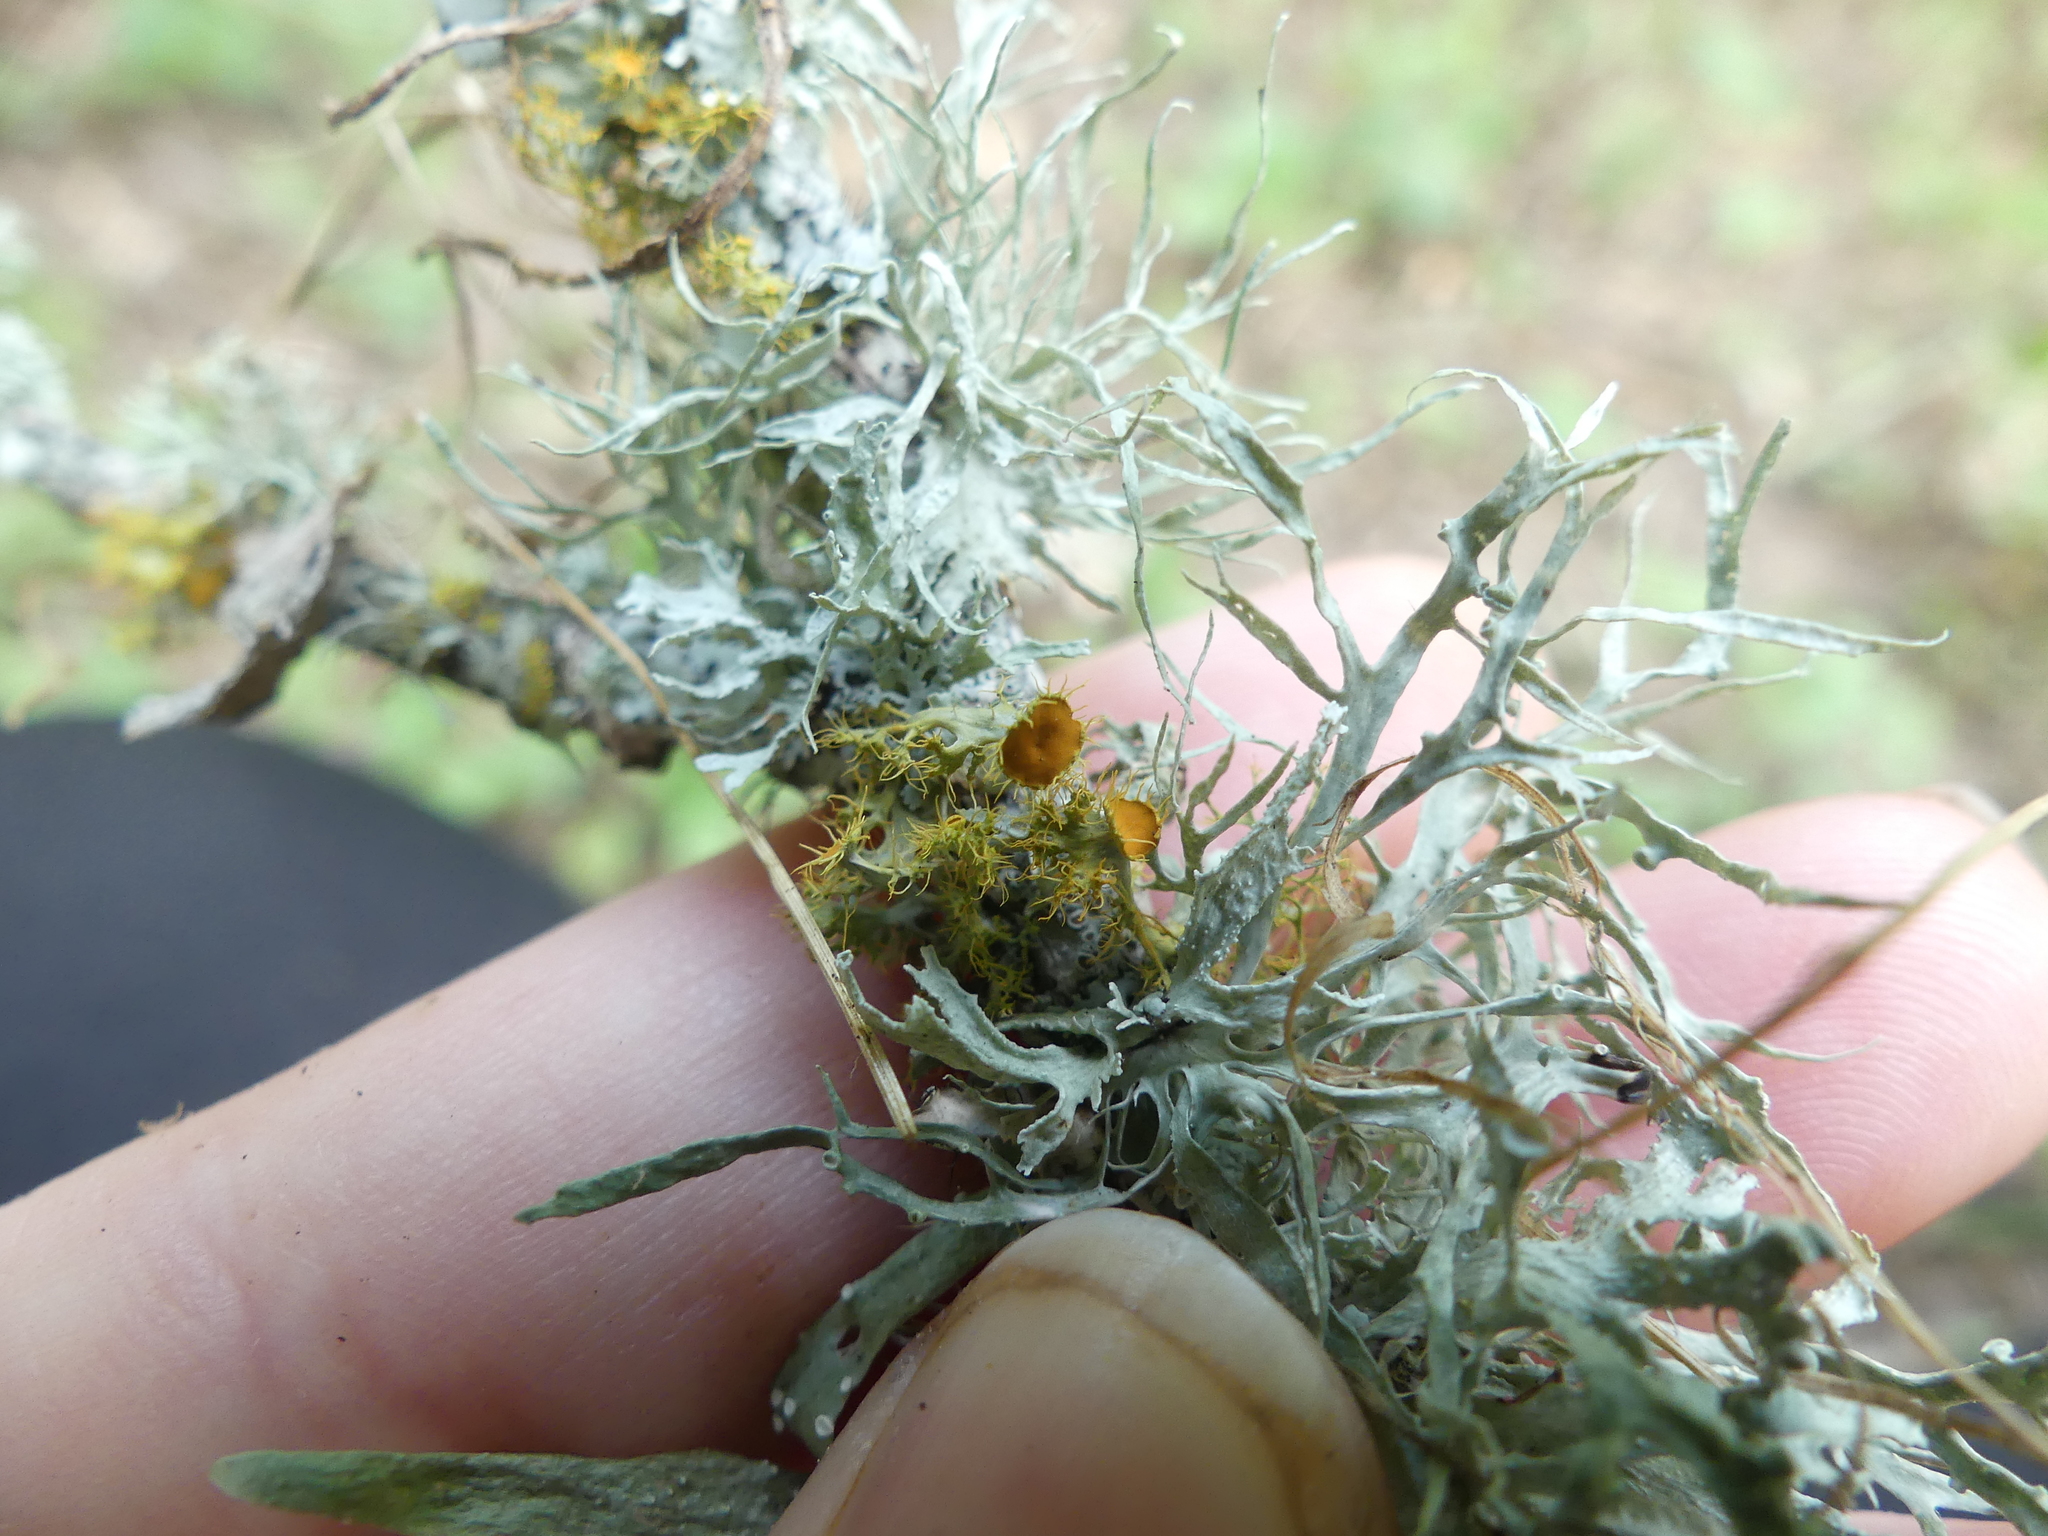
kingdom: Fungi
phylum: Ascomycota
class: Lecanoromycetes
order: Teloschistales
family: Teloschistaceae
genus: Niorma
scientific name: Niorma chrysophthalma
